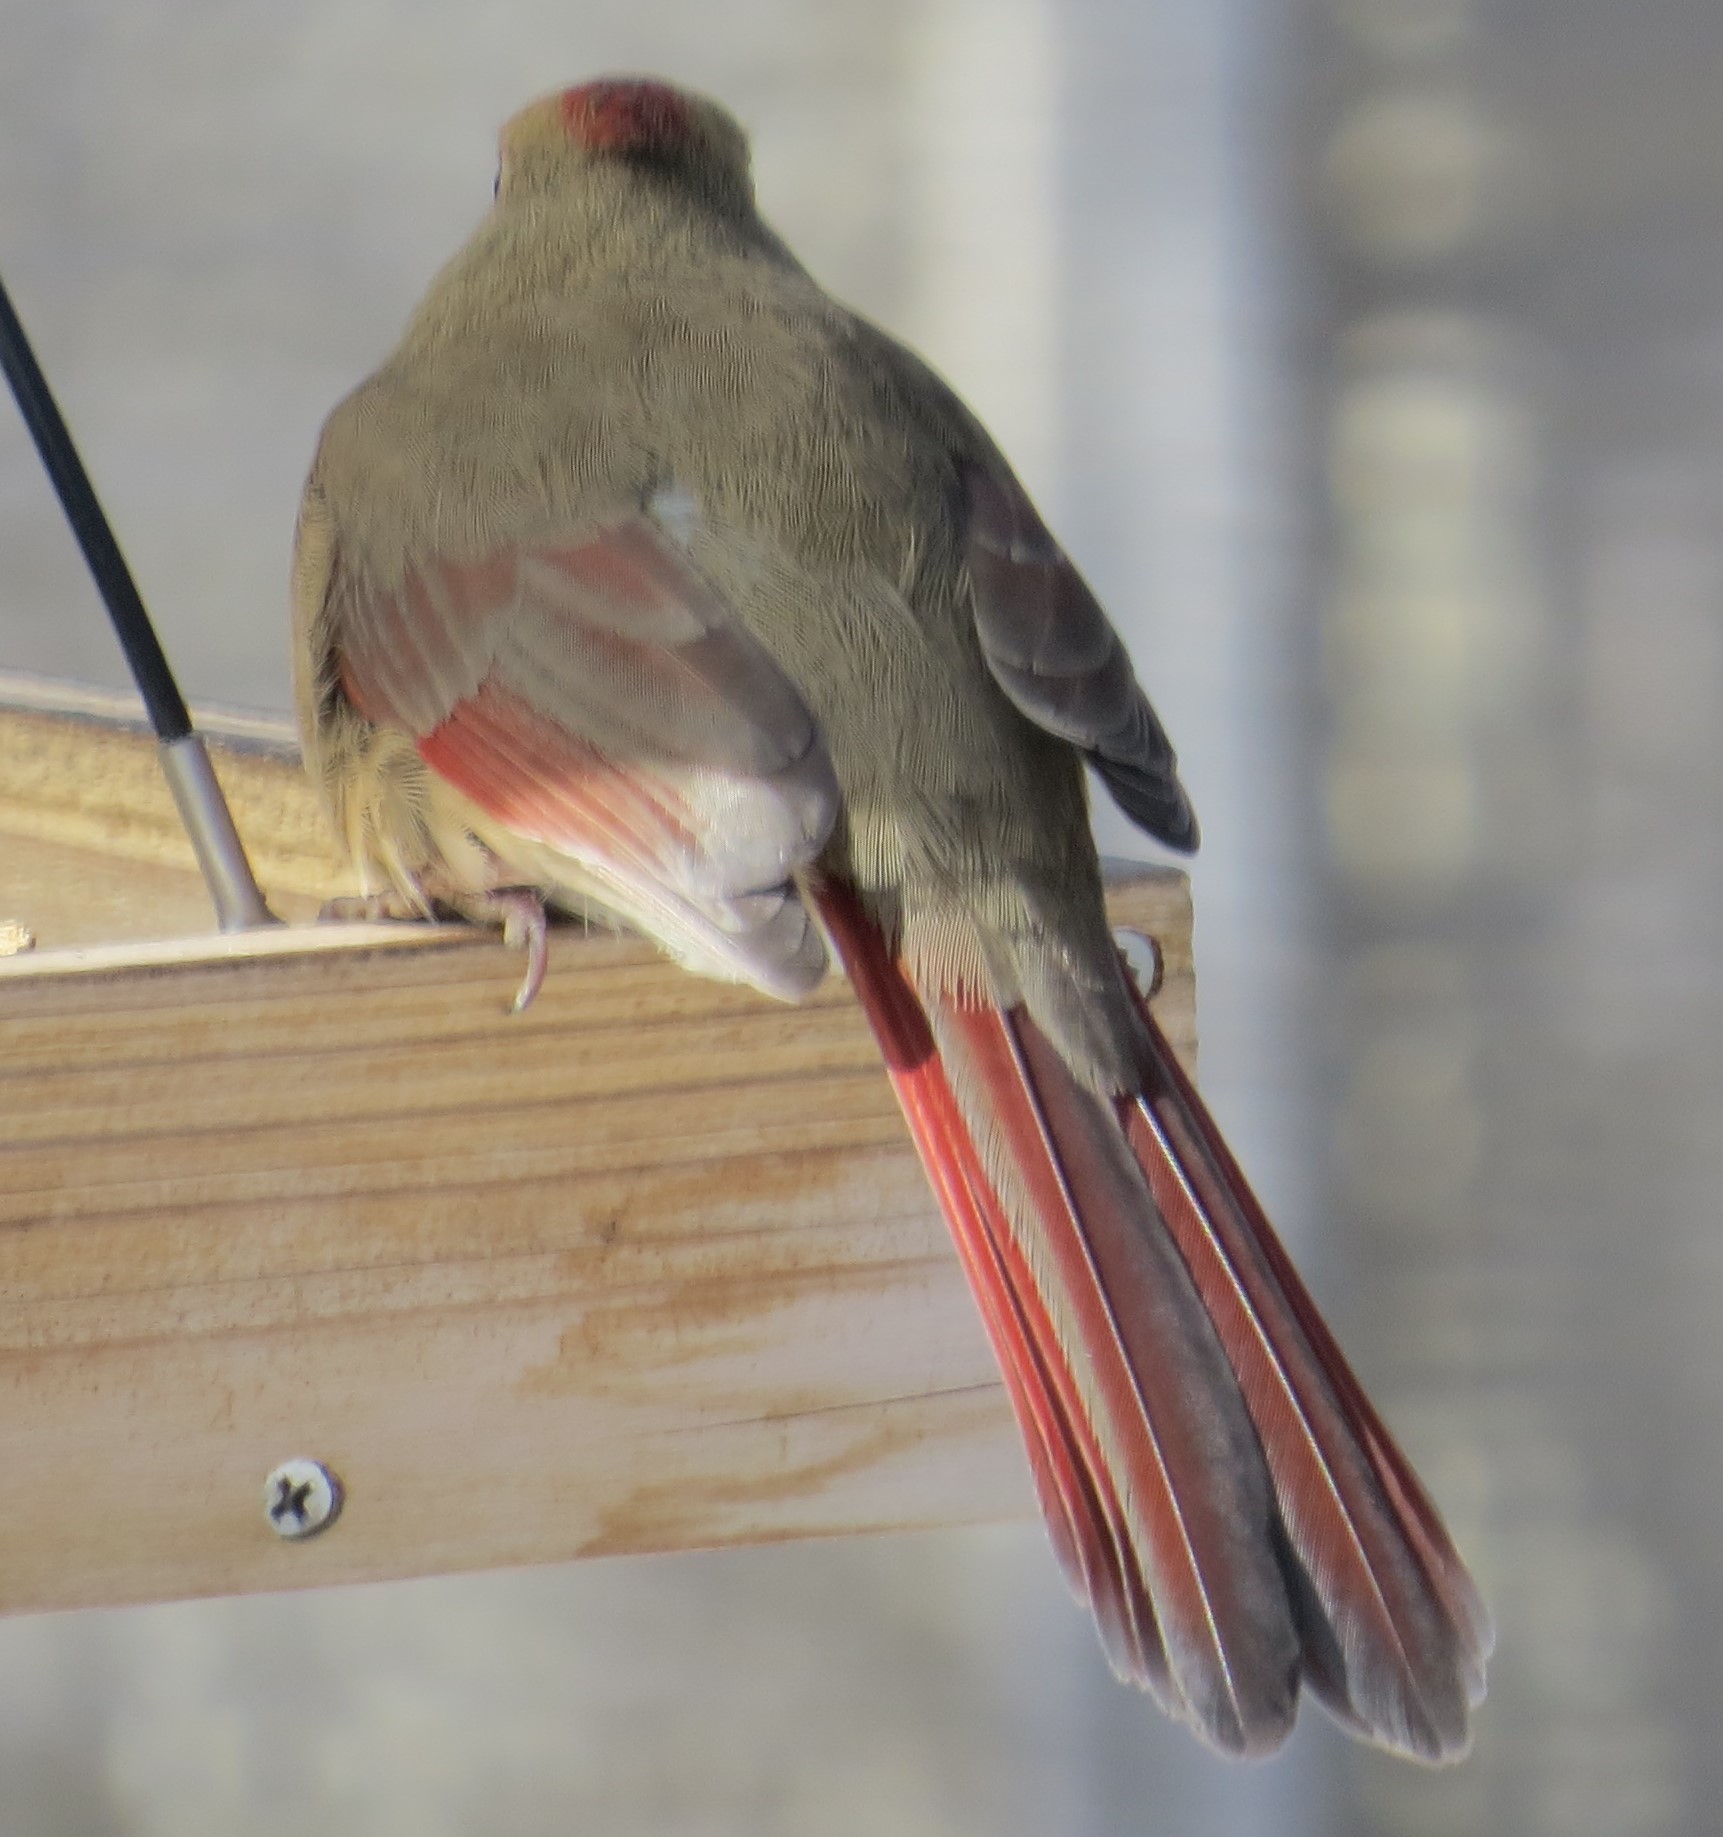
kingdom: Animalia
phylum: Chordata
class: Aves
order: Passeriformes
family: Cardinalidae
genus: Cardinalis
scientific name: Cardinalis cardinalis
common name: Northern cardinal
